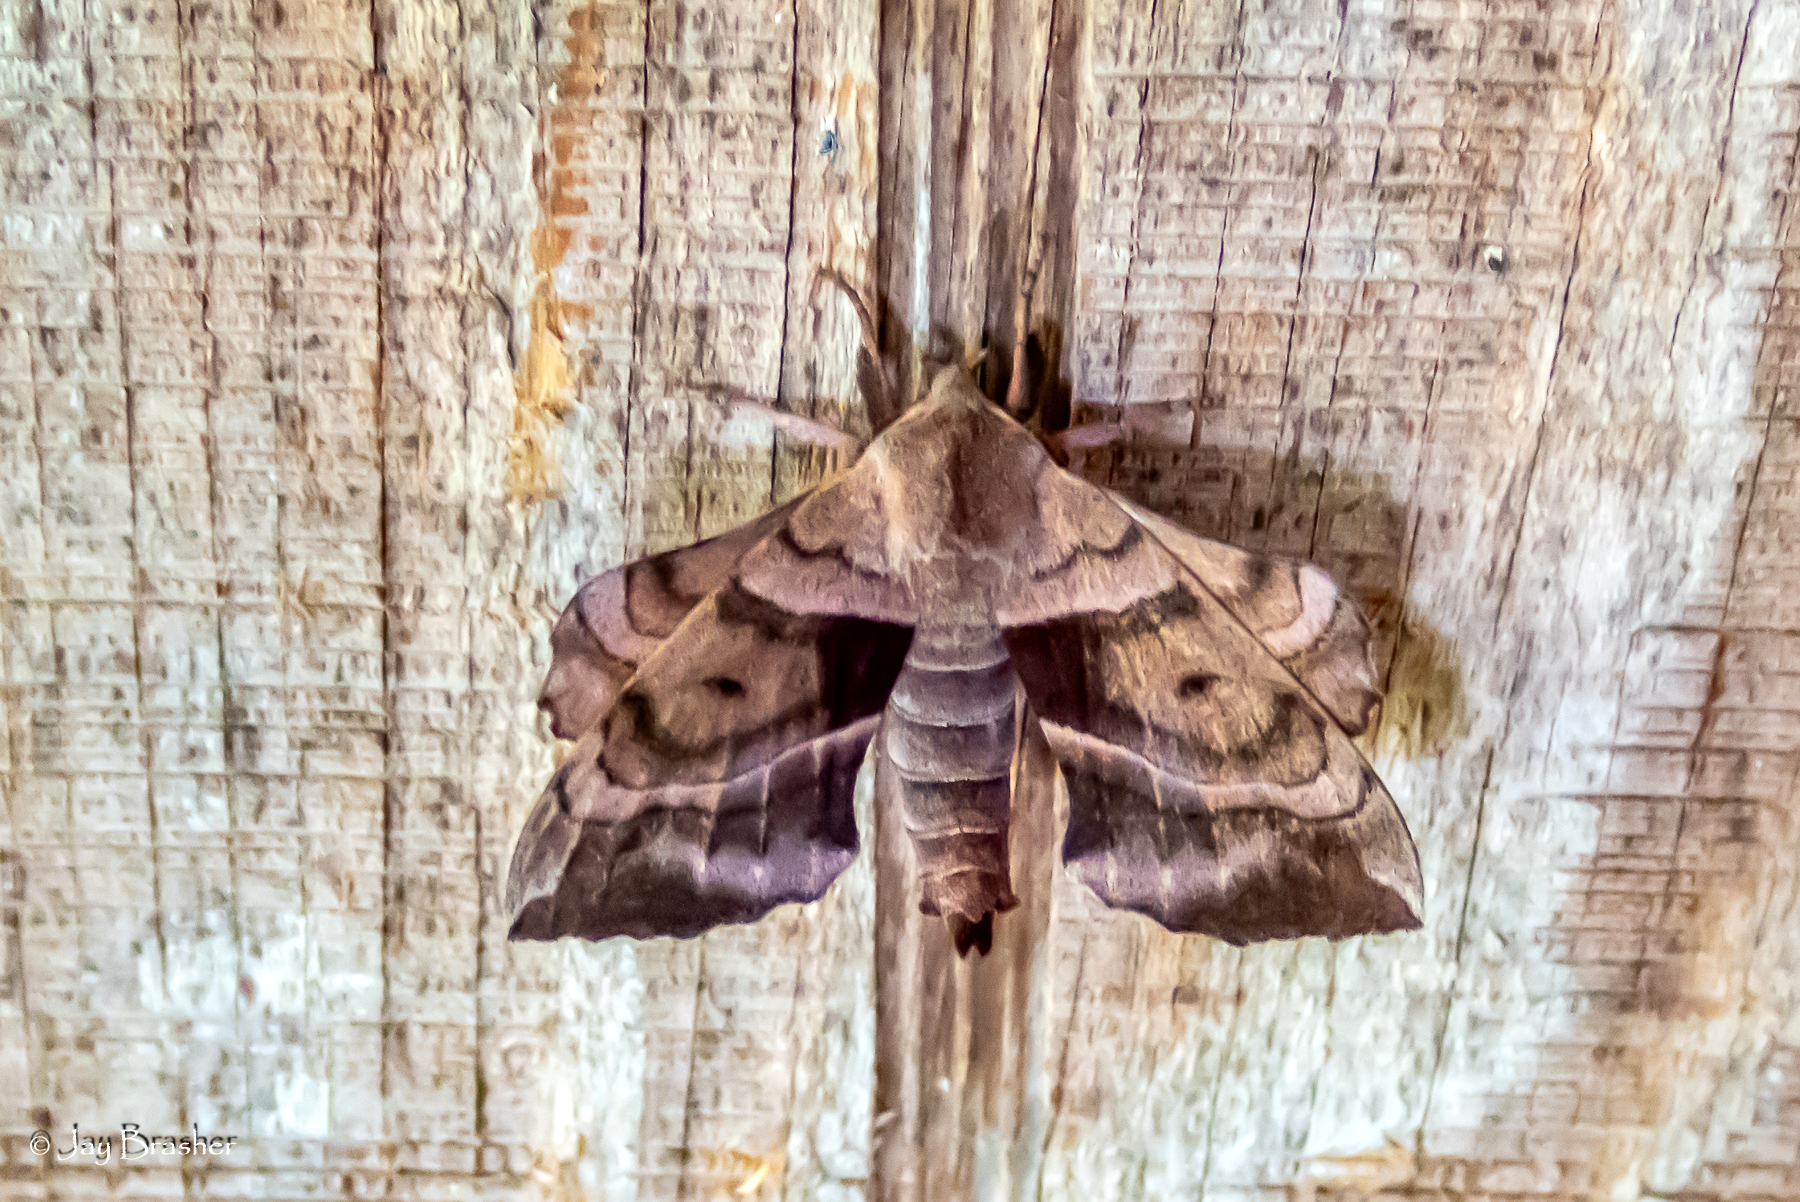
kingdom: Animalia
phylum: Arthropoda
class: Insecta
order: Lepidoptera
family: Sphingidae
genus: Amorpha
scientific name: Amorpha juglandis
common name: Walnut sphinx
